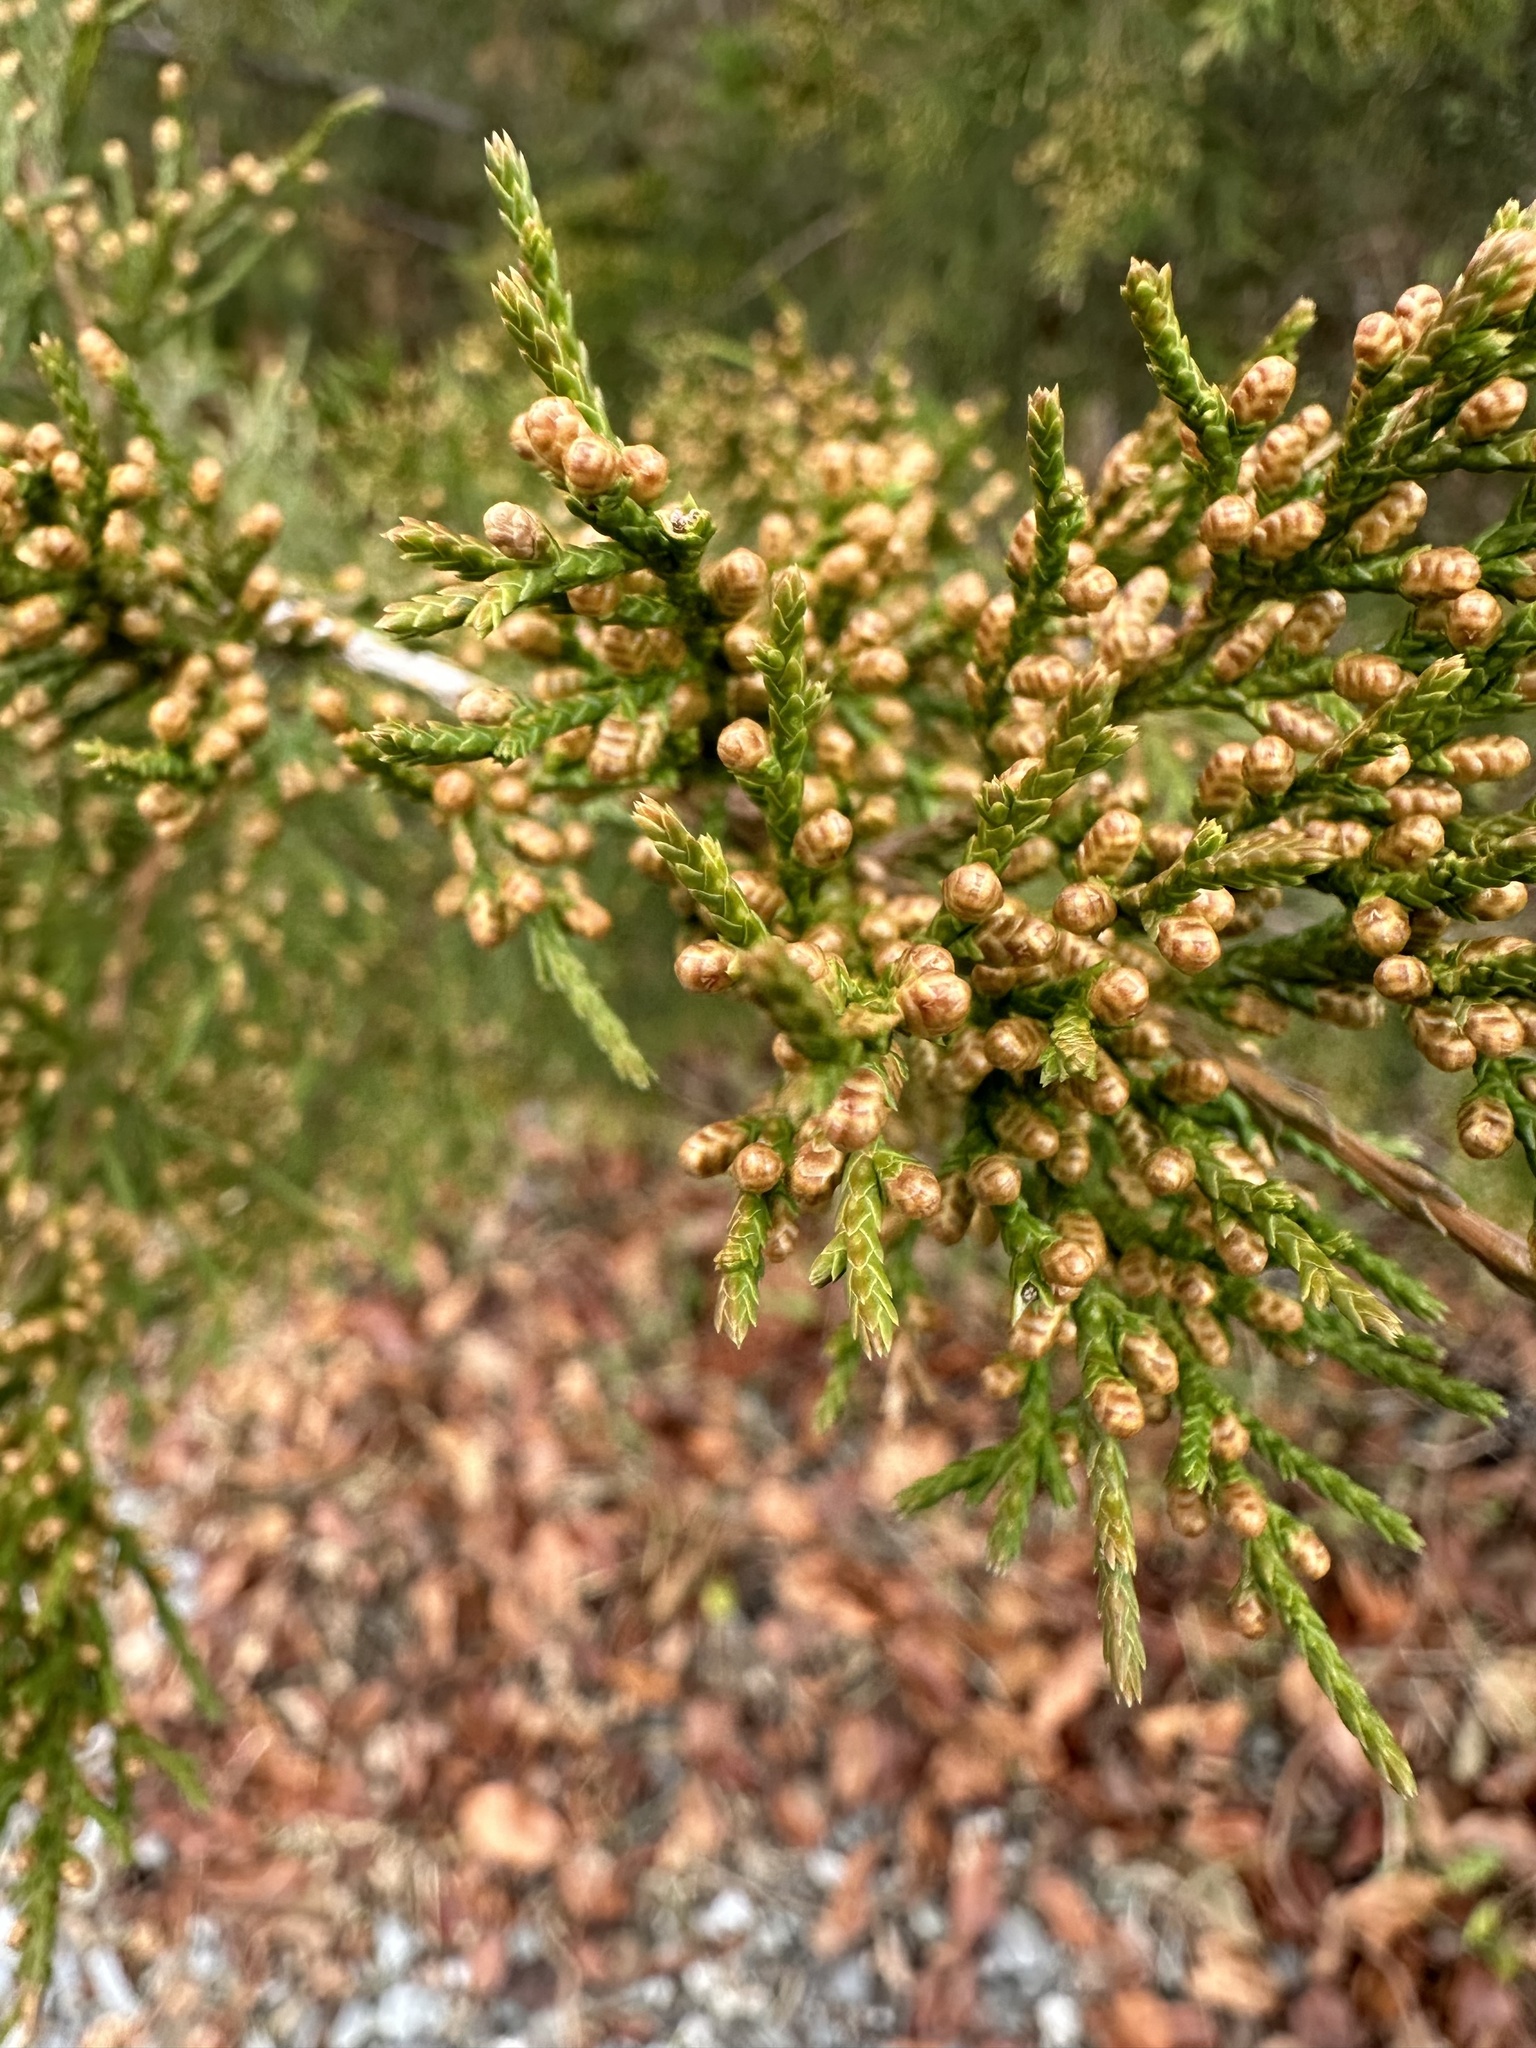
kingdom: Plantae
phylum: Tracheophyta
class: Pinopsida
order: Pinales
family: Cupressaceae
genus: Juniperus
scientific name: Juniperus virginiana
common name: Red juniper
